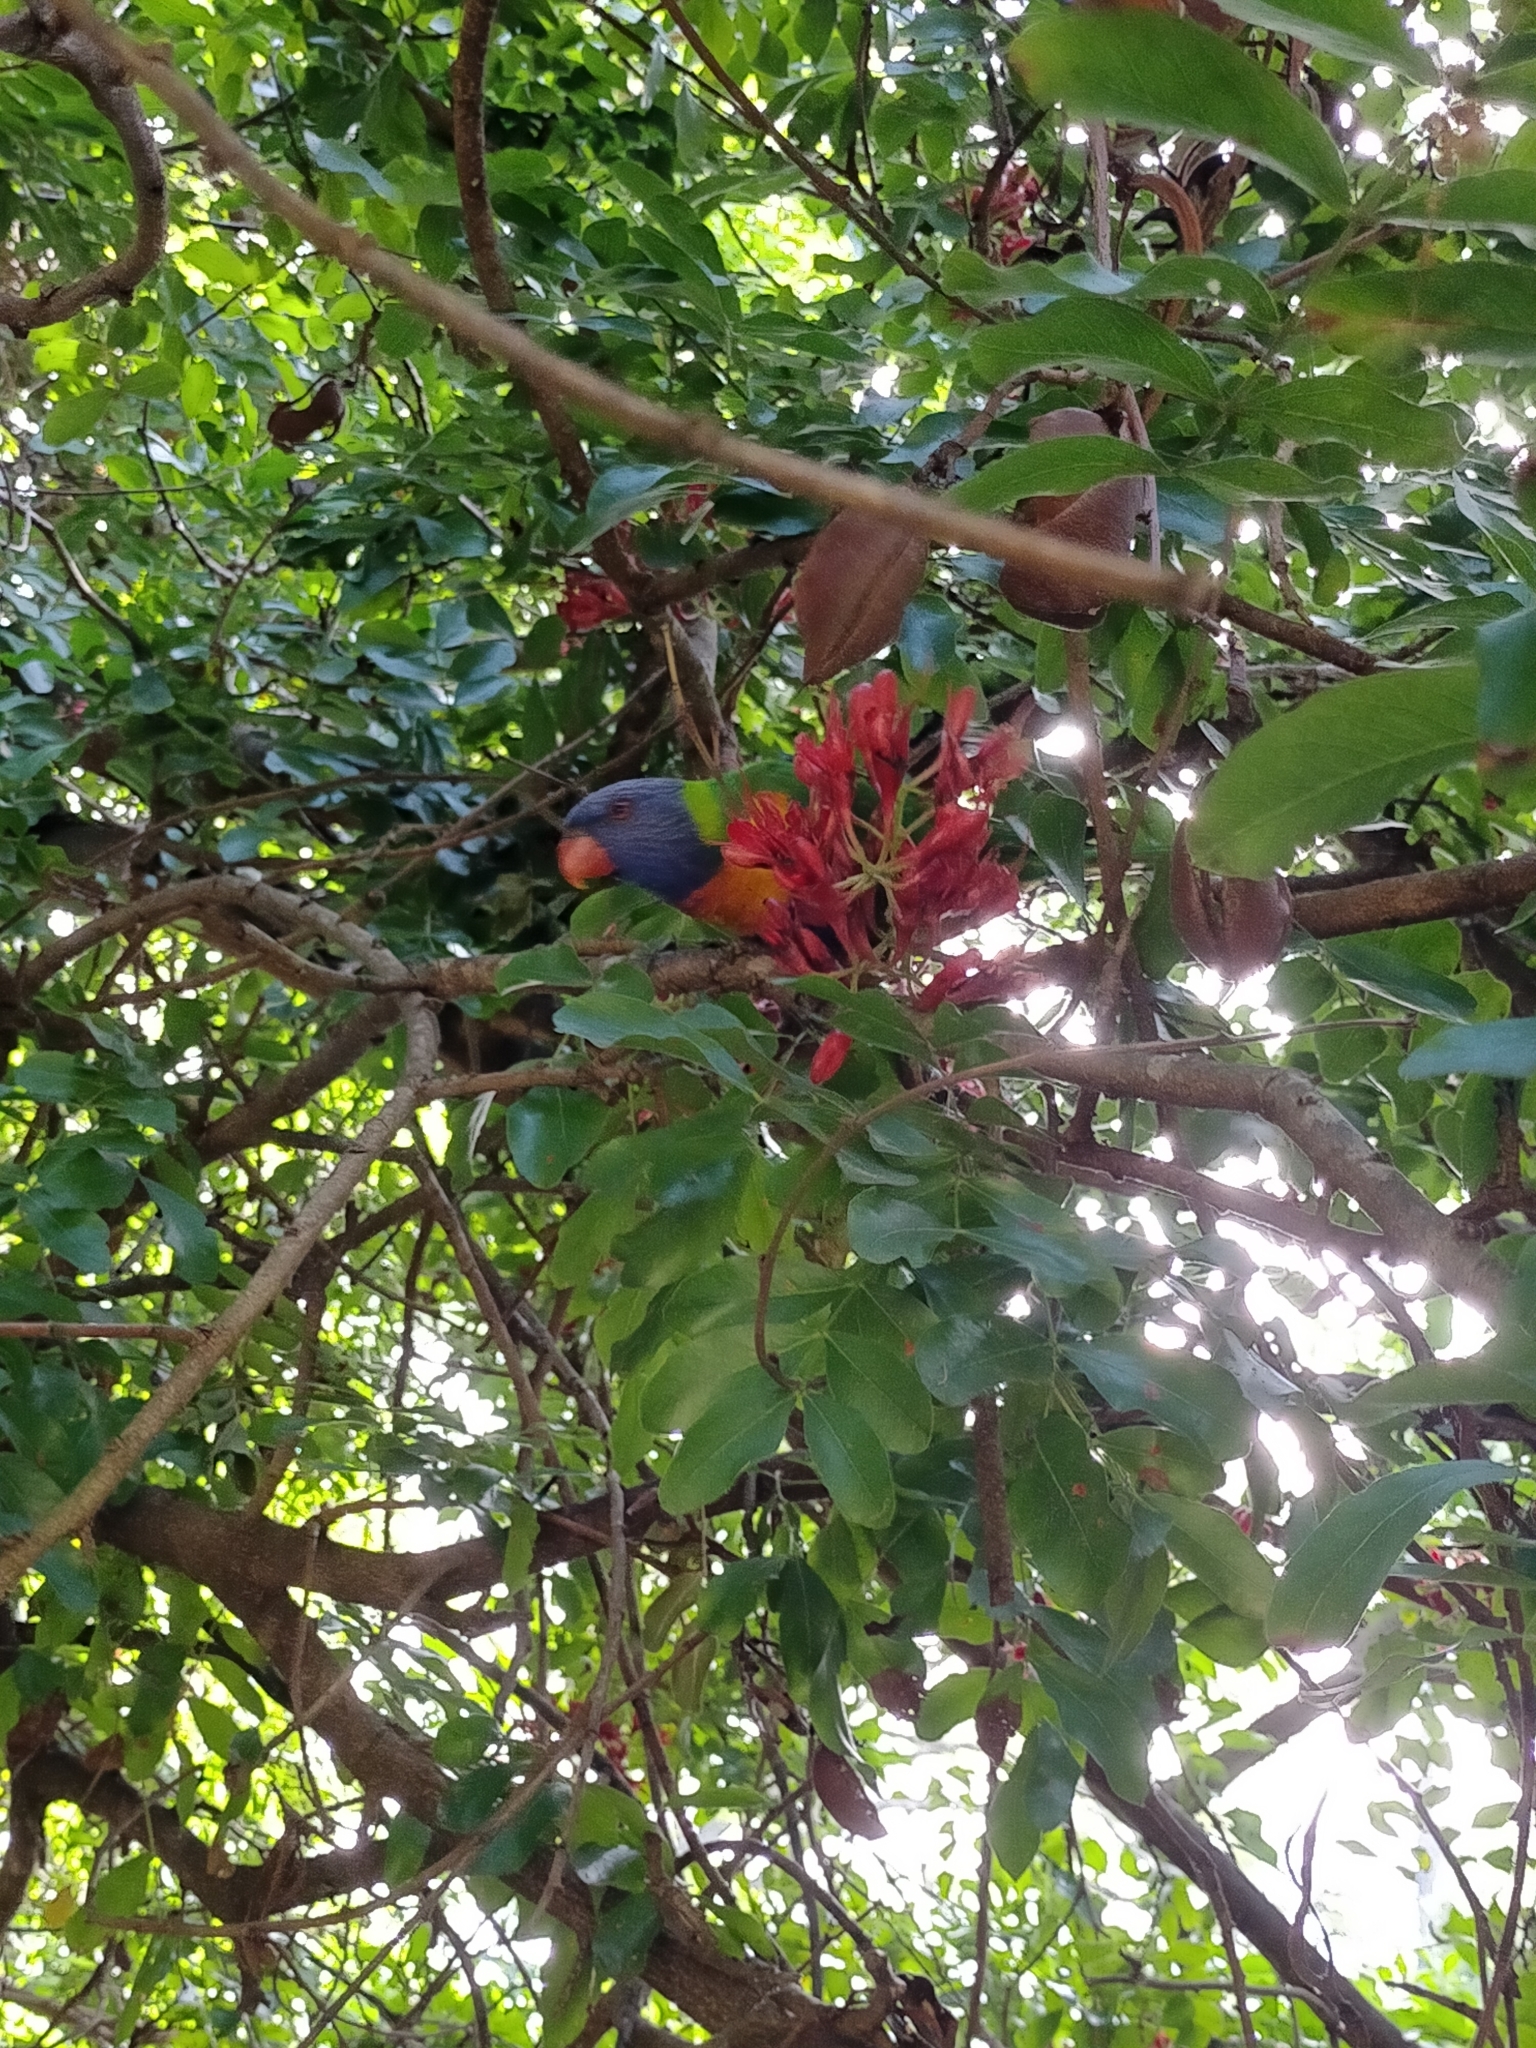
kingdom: Animalia
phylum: Chordata
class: Aves
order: Psittaciformes
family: Psittacidae
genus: Trichoglossus
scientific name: Trichoglossus haematodus
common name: Coconut lorikeet
